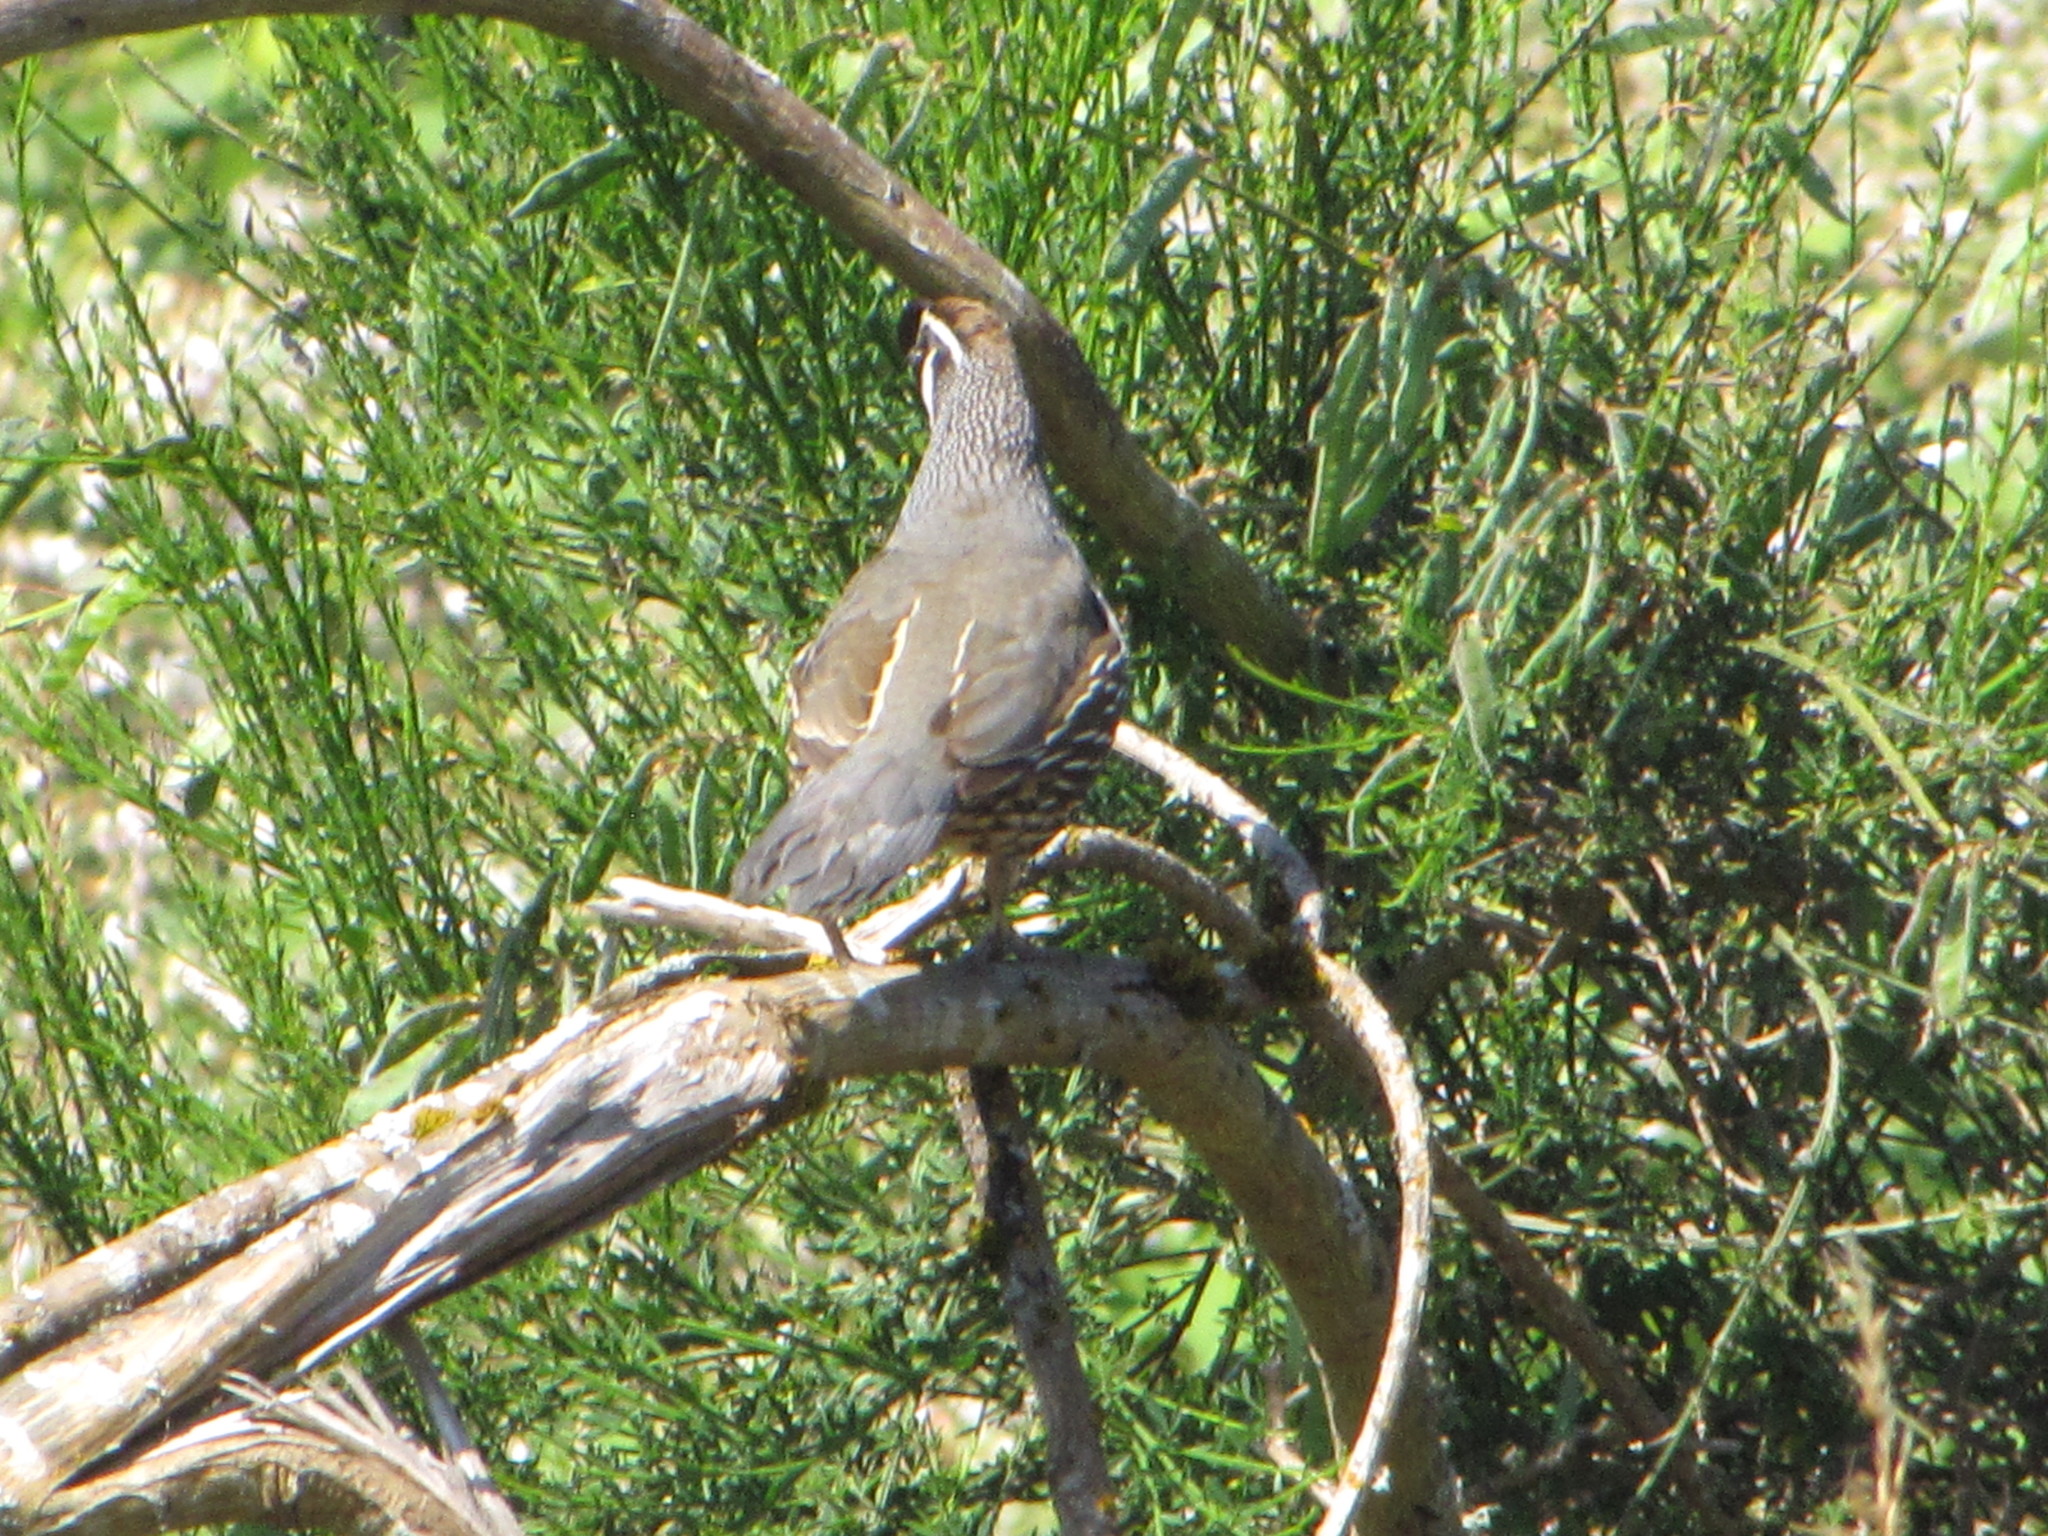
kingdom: Animalia
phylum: Chordata
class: Aves
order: Galliformes
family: Odontophoridae
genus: Callipepla
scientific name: Callipepla californica
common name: California quail
